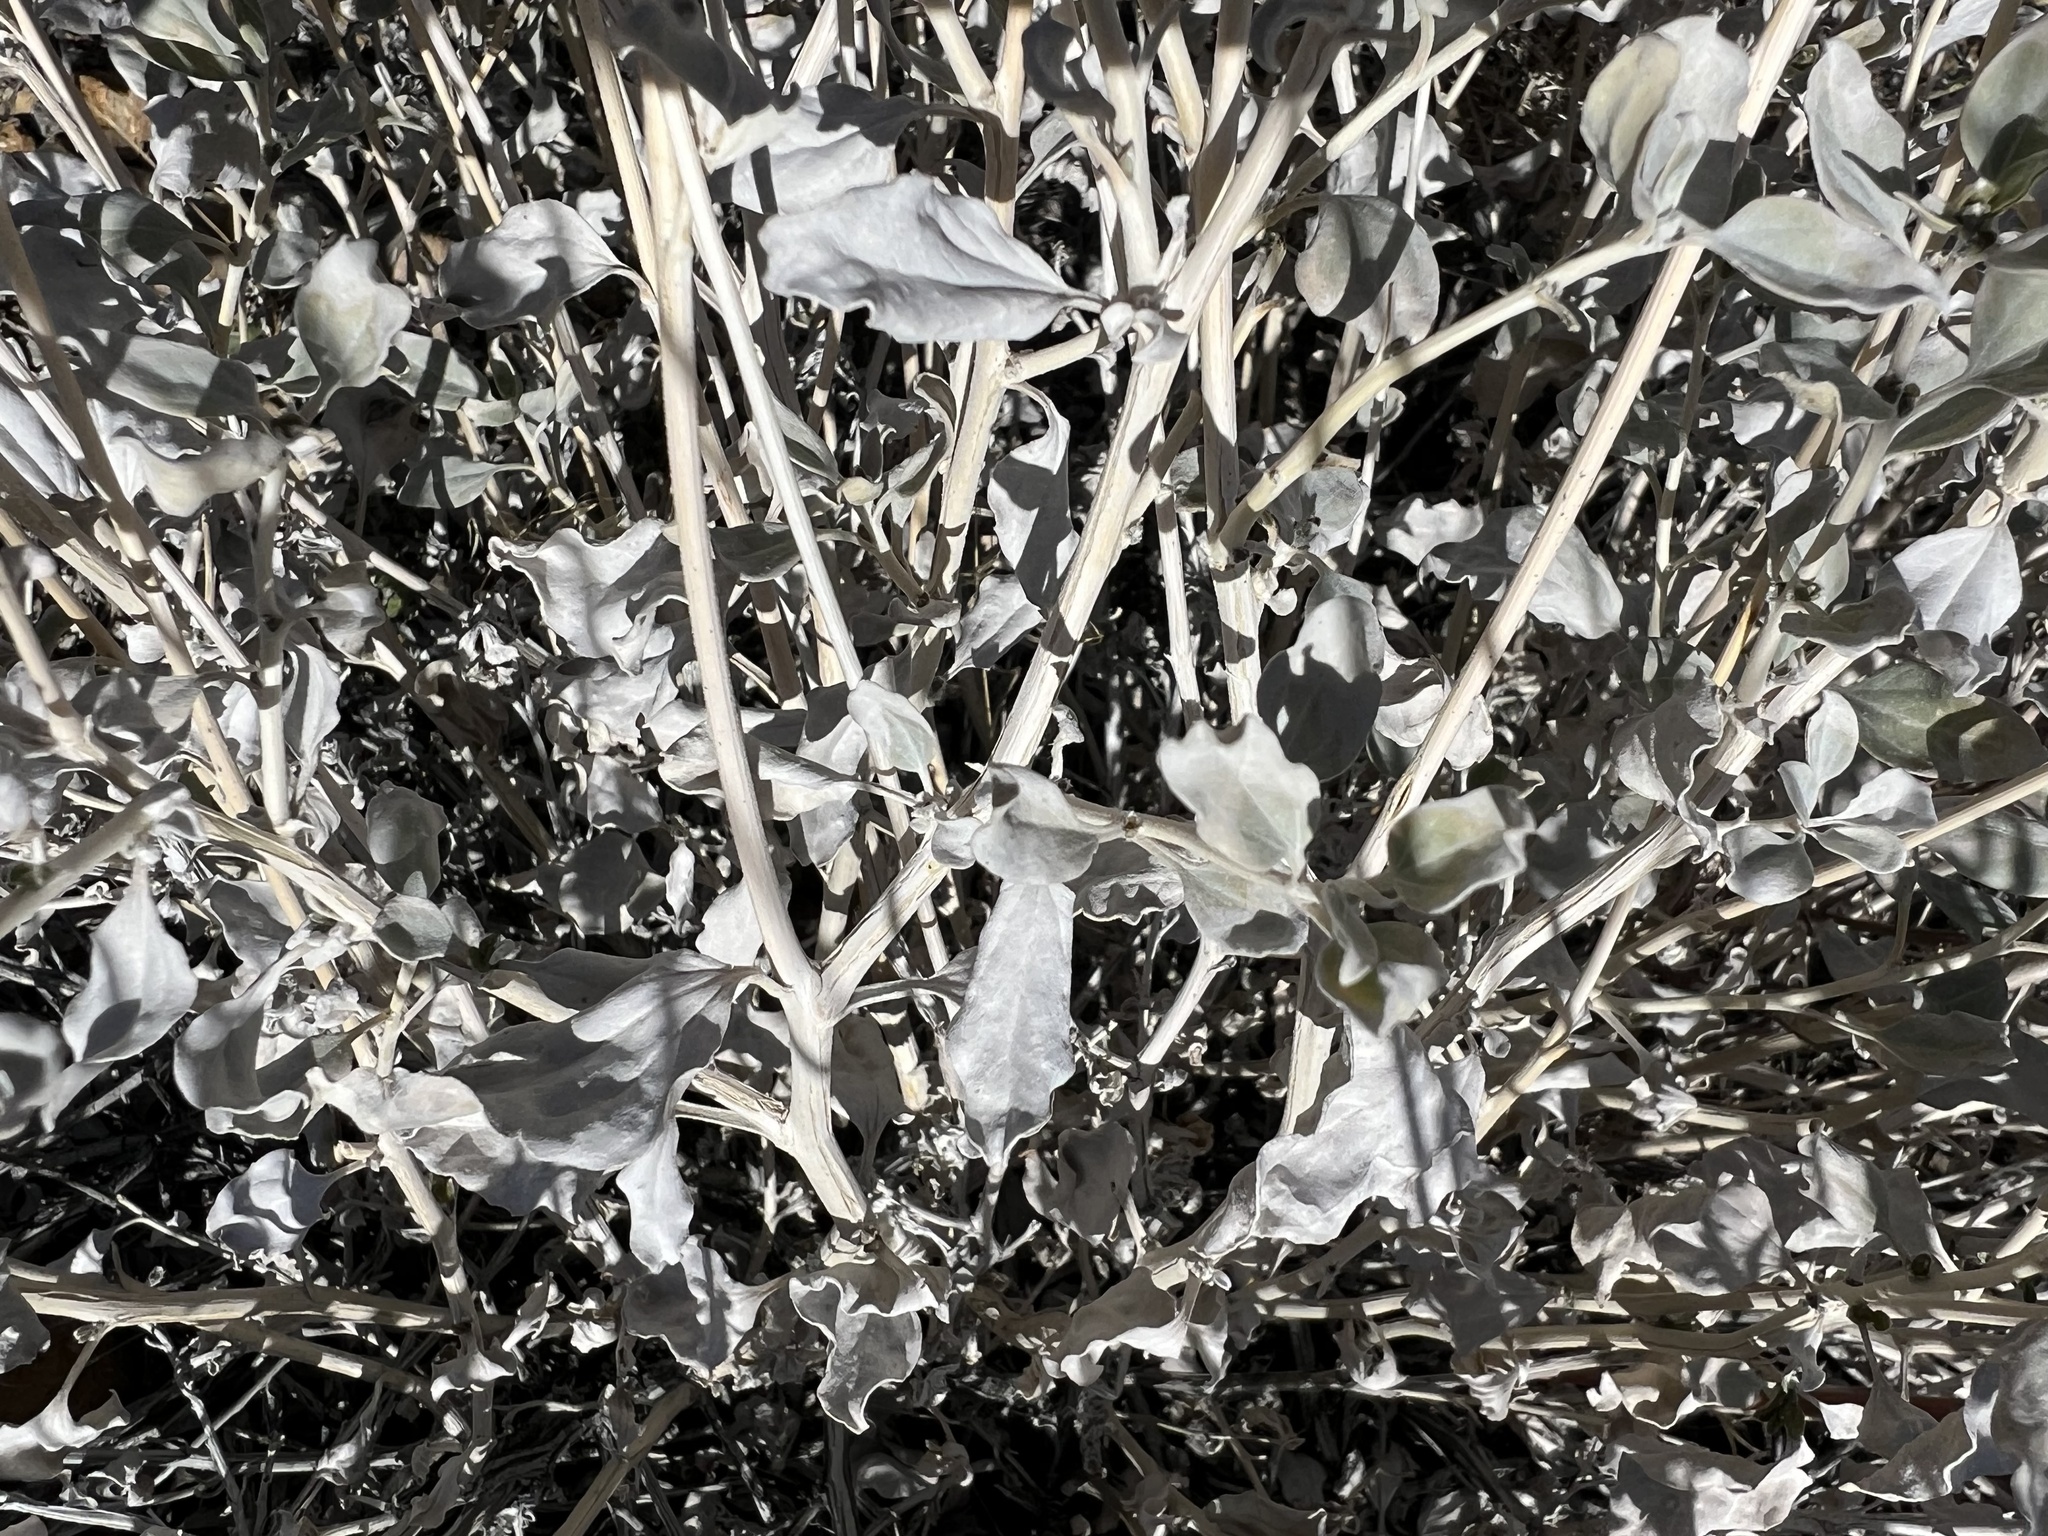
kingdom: Plantae
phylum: Tracheophyta
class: Magnoliopsida
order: Asterales
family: Asteraceae
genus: Encelia
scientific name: Encelia actoni
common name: Acton encelia
